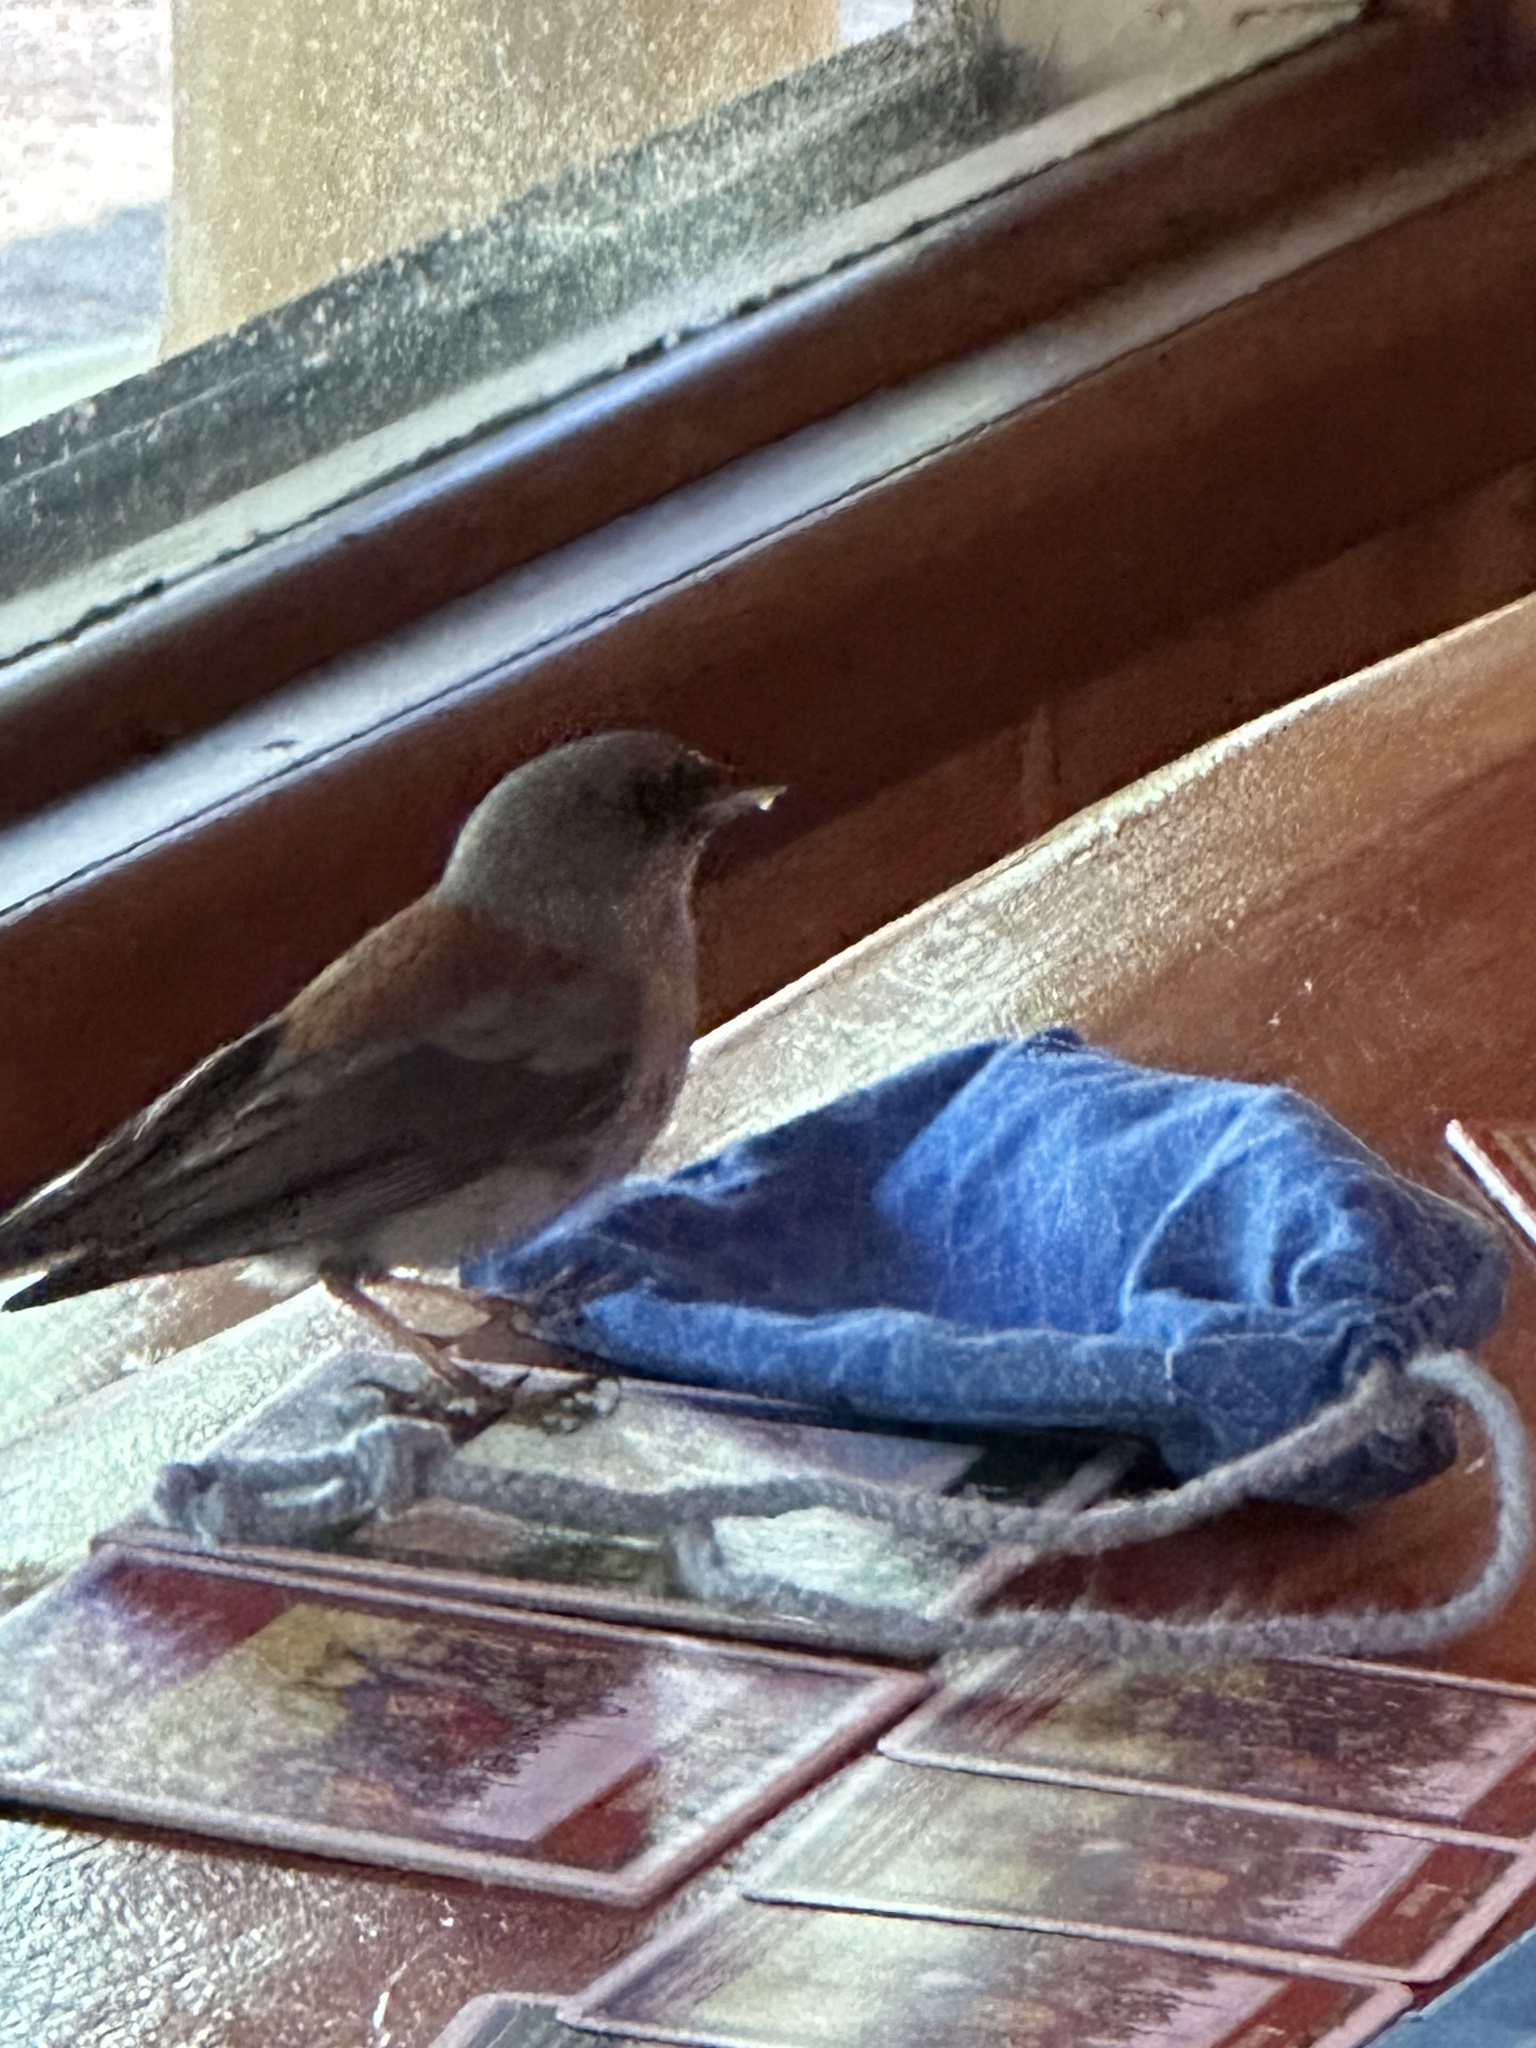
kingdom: Animalia
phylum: Chordata
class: Aves
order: Passeriformes
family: Passerellidae
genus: Junco
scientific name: Junco hyemalis
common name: Dark-eyed junco
